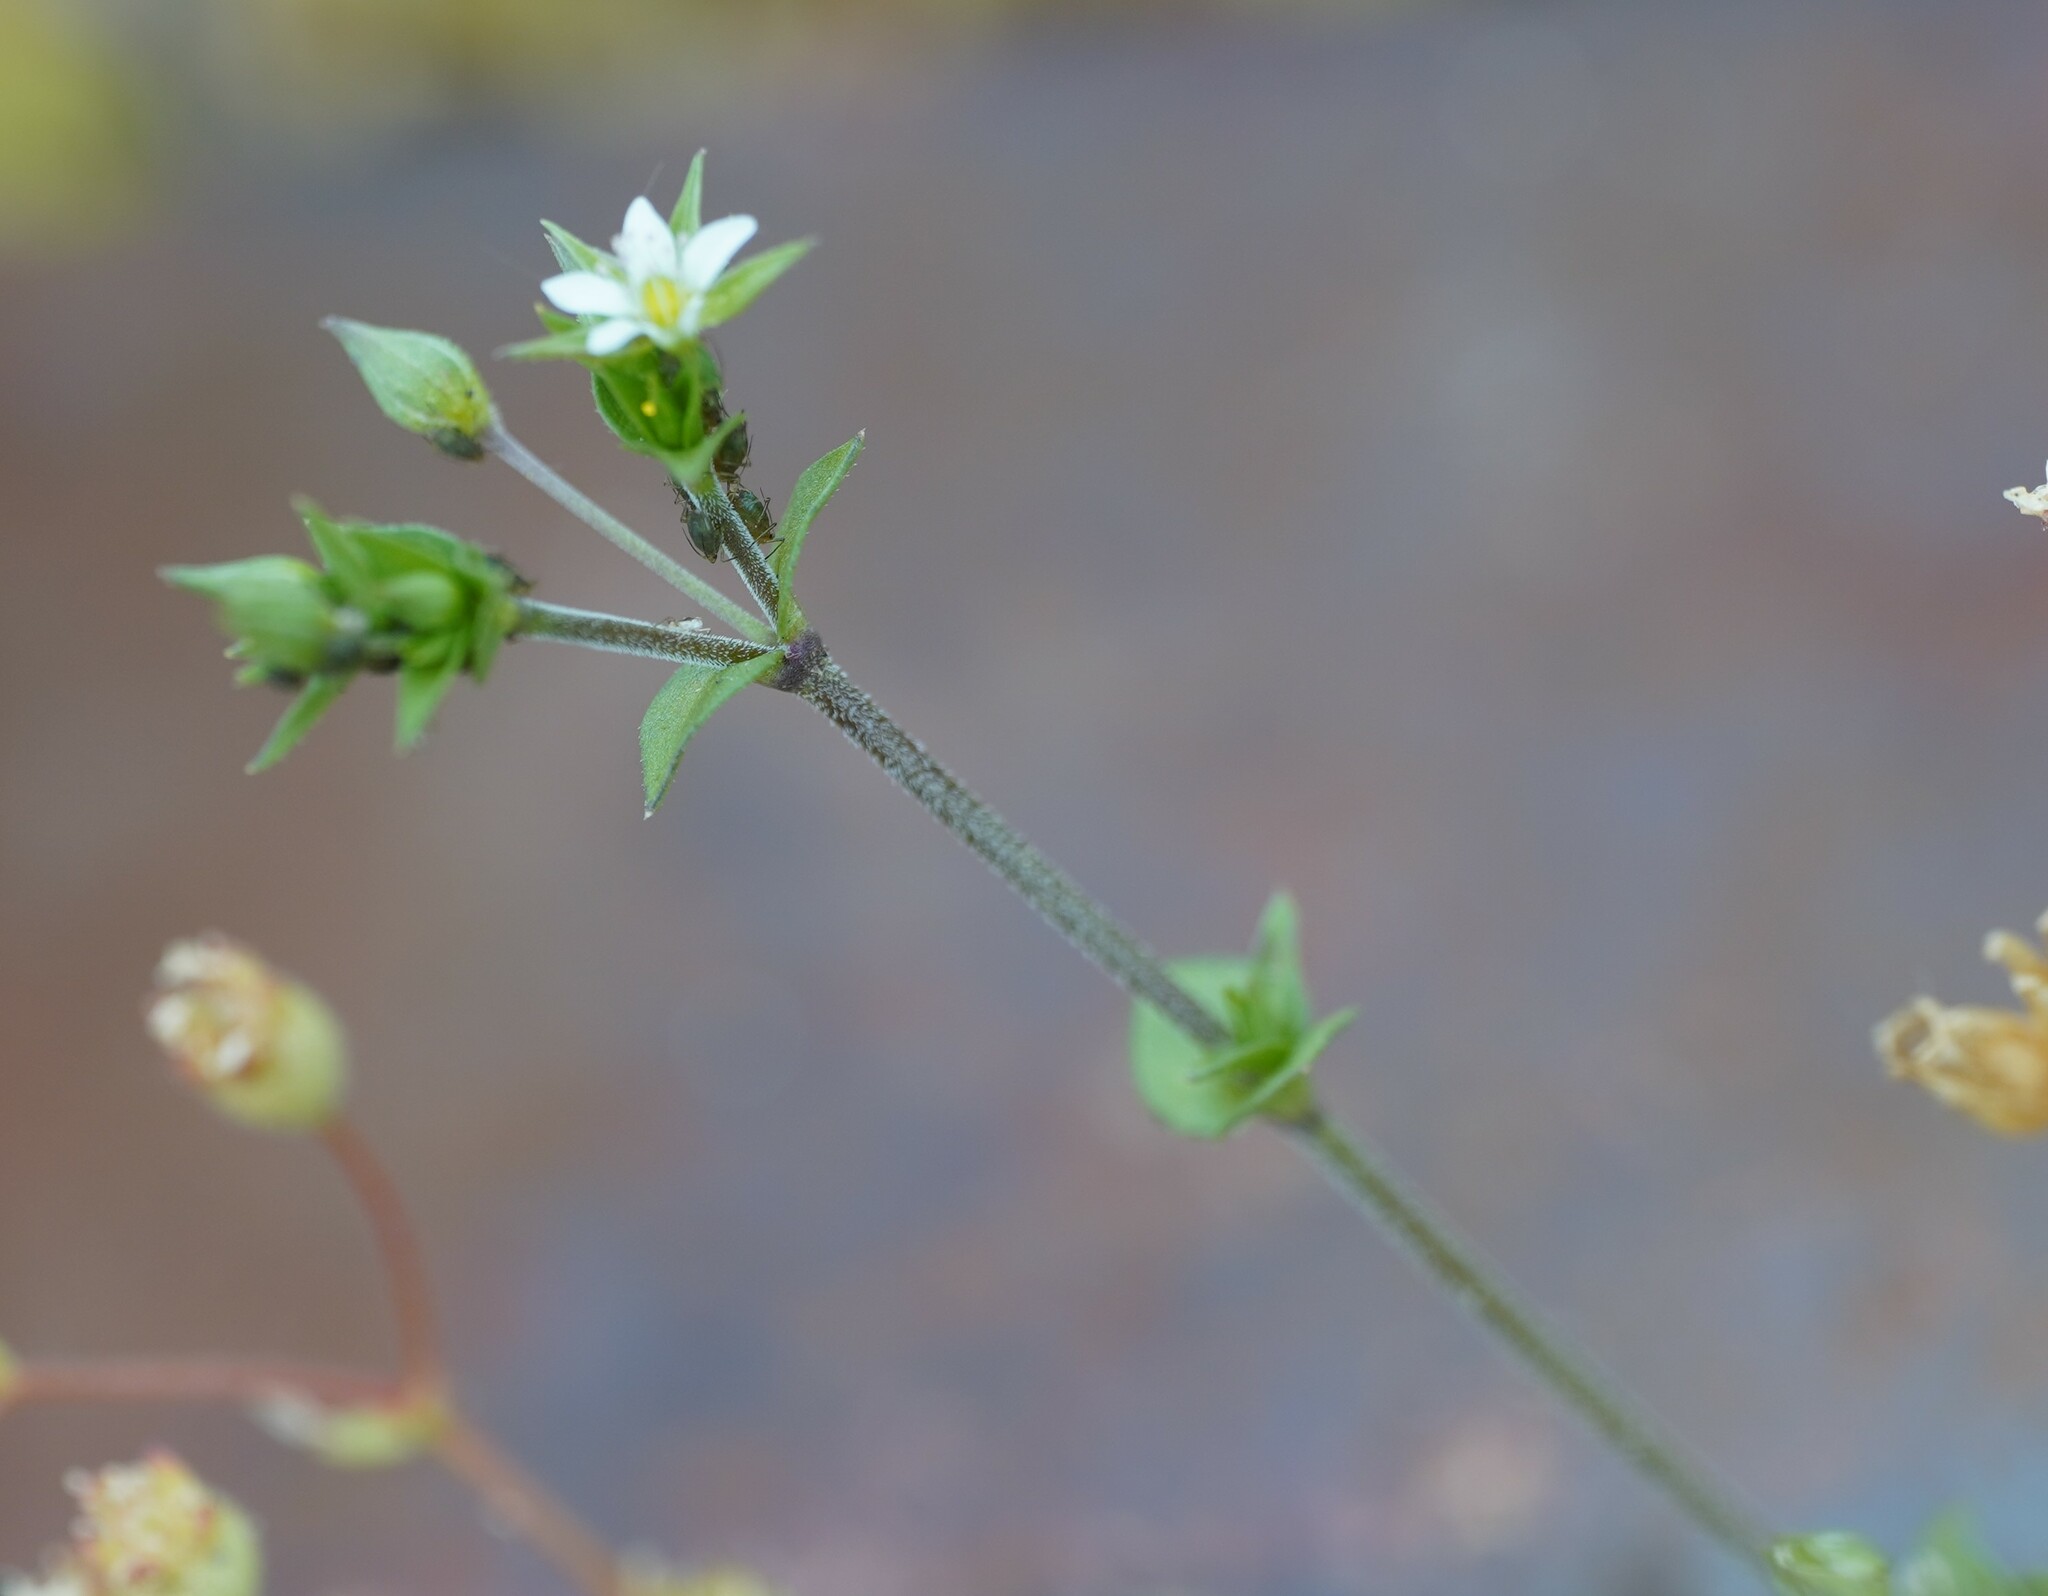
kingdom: Plantae
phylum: Tracheophyta
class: Magnoliopsida
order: Caryophyllales
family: Caryophyllaceae
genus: Arenaria
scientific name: Arenaria serpyllifolia
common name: Thyme-leaved sandwort
